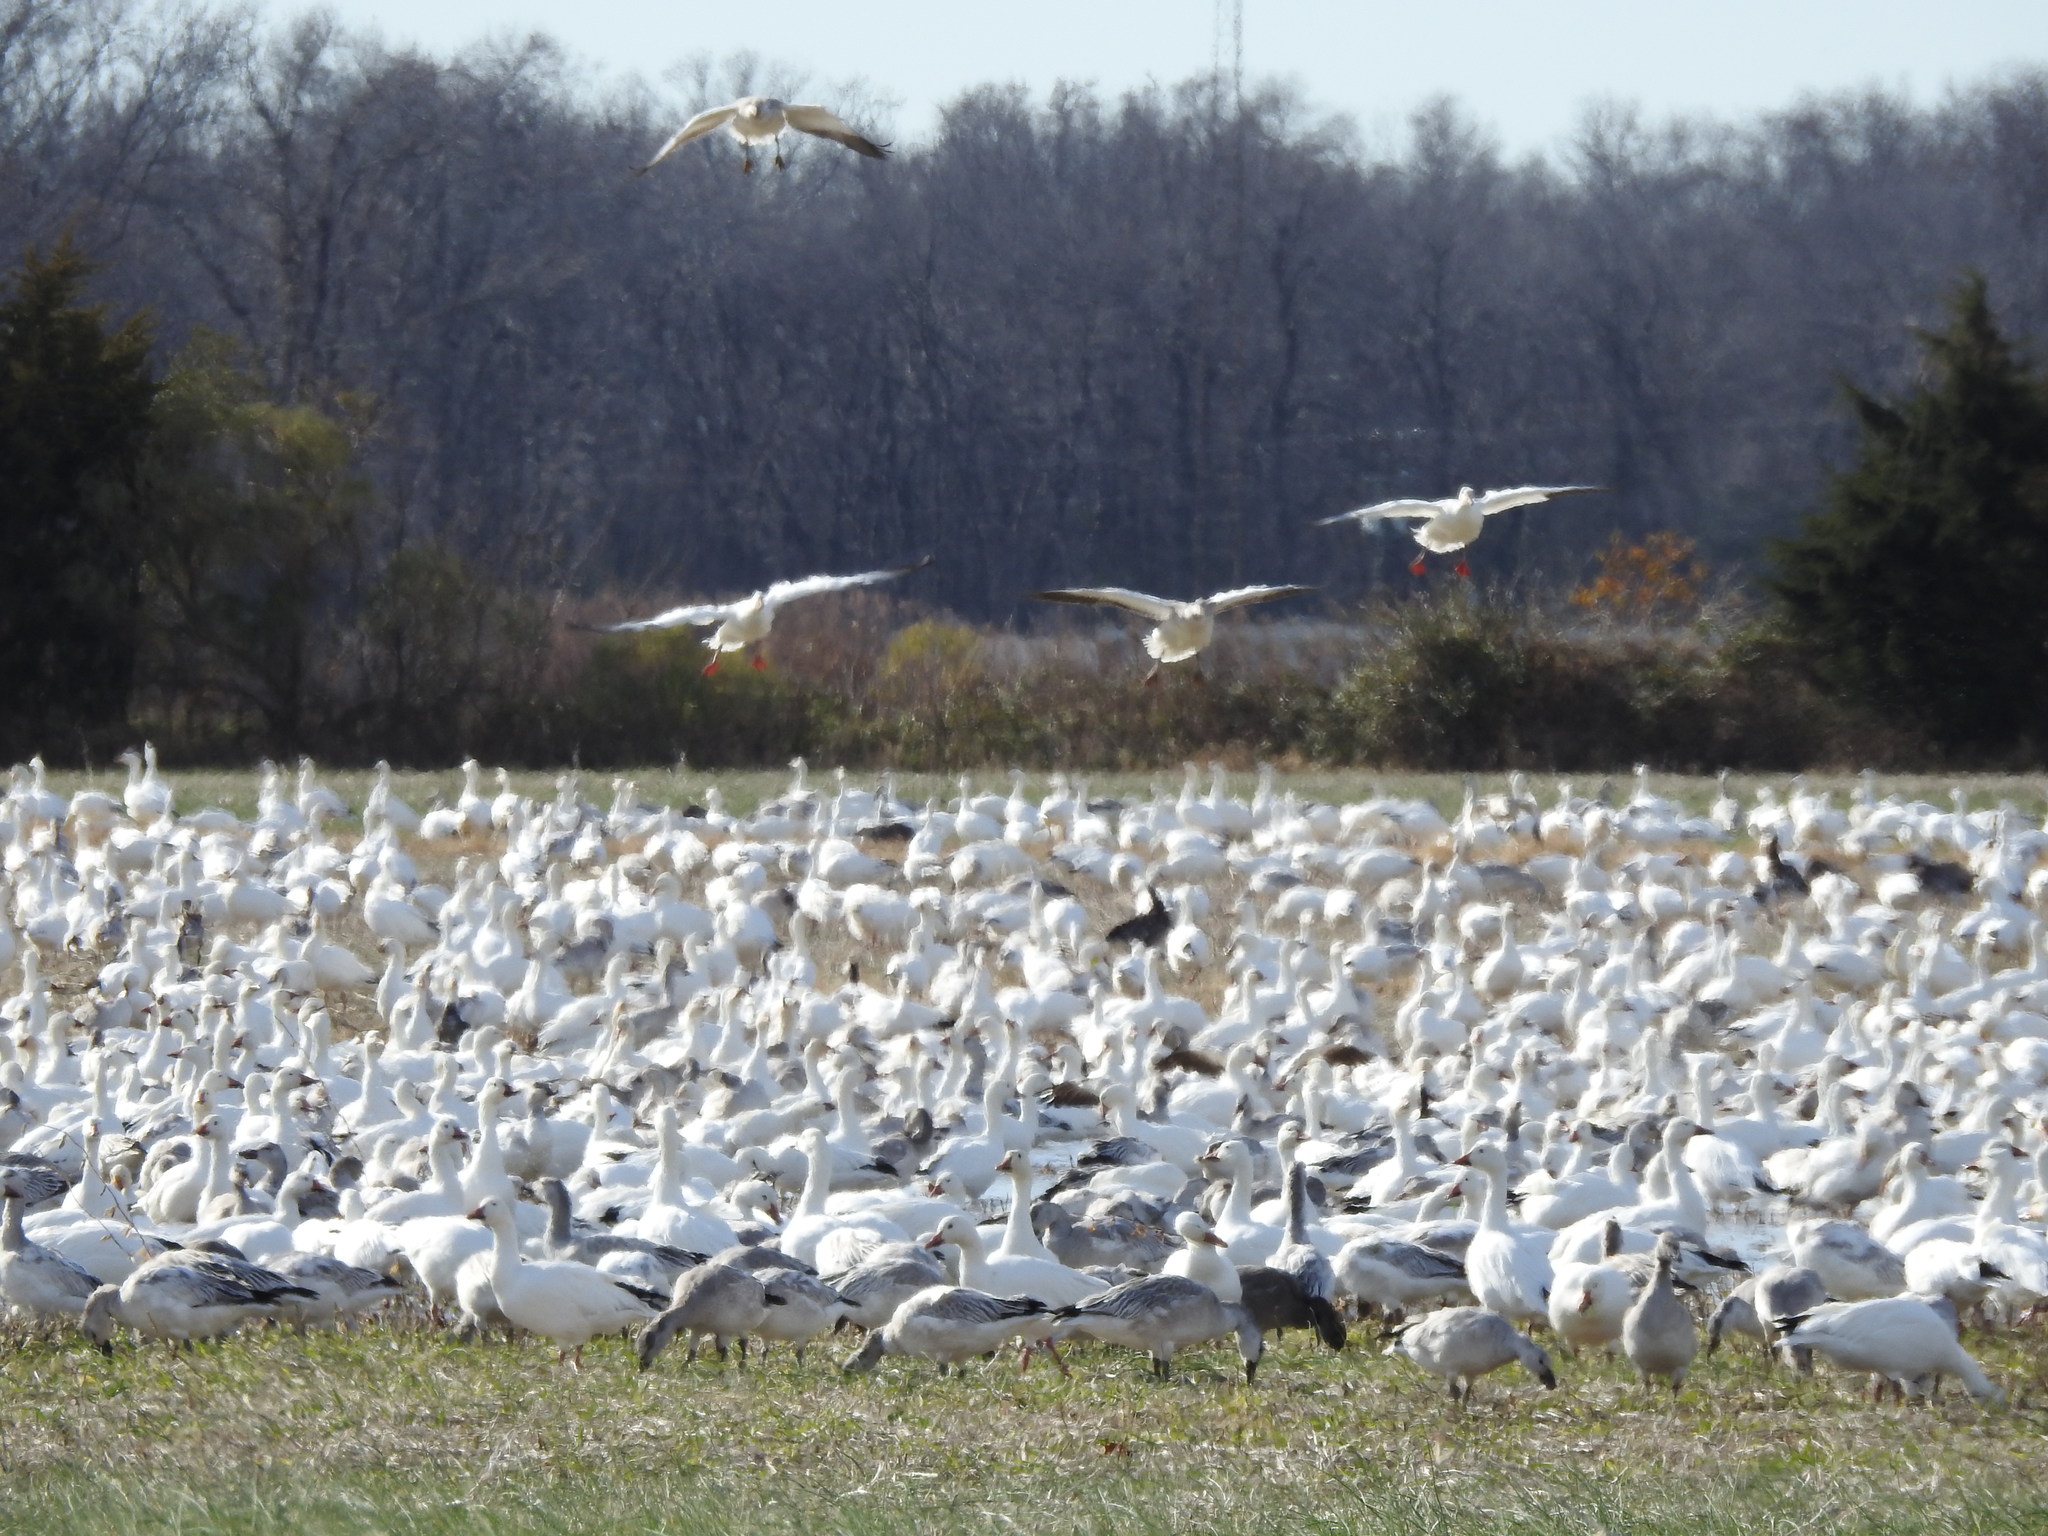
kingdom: Animalia
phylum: Chordata
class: Aves
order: Anseriformes
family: Anatidae
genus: Anser
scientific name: Anser caerulescens
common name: Snow goose
